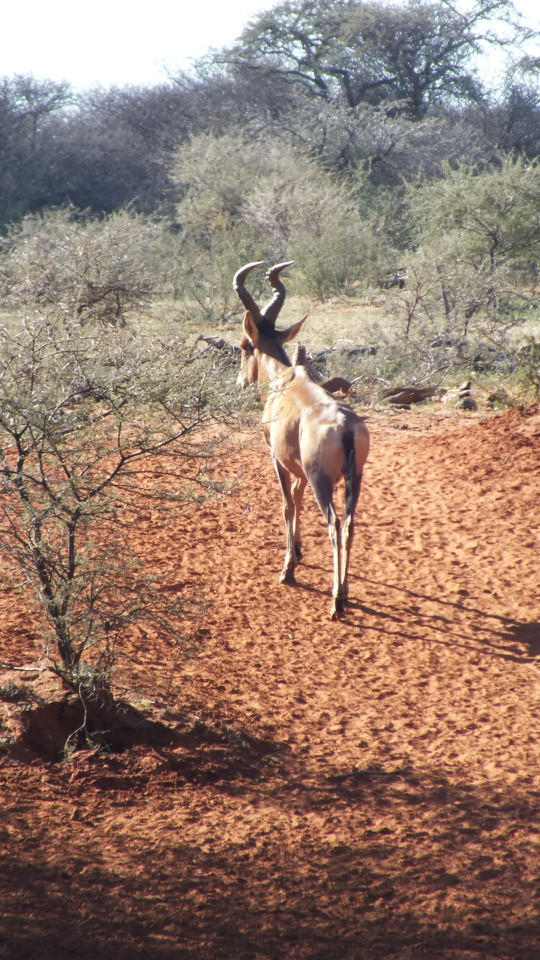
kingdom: Animalia
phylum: Chordata
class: Mammalia
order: Artiodactyla
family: Bovidae
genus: Alcelaphus
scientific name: Alcelaphus caama
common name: Red hartebeest
